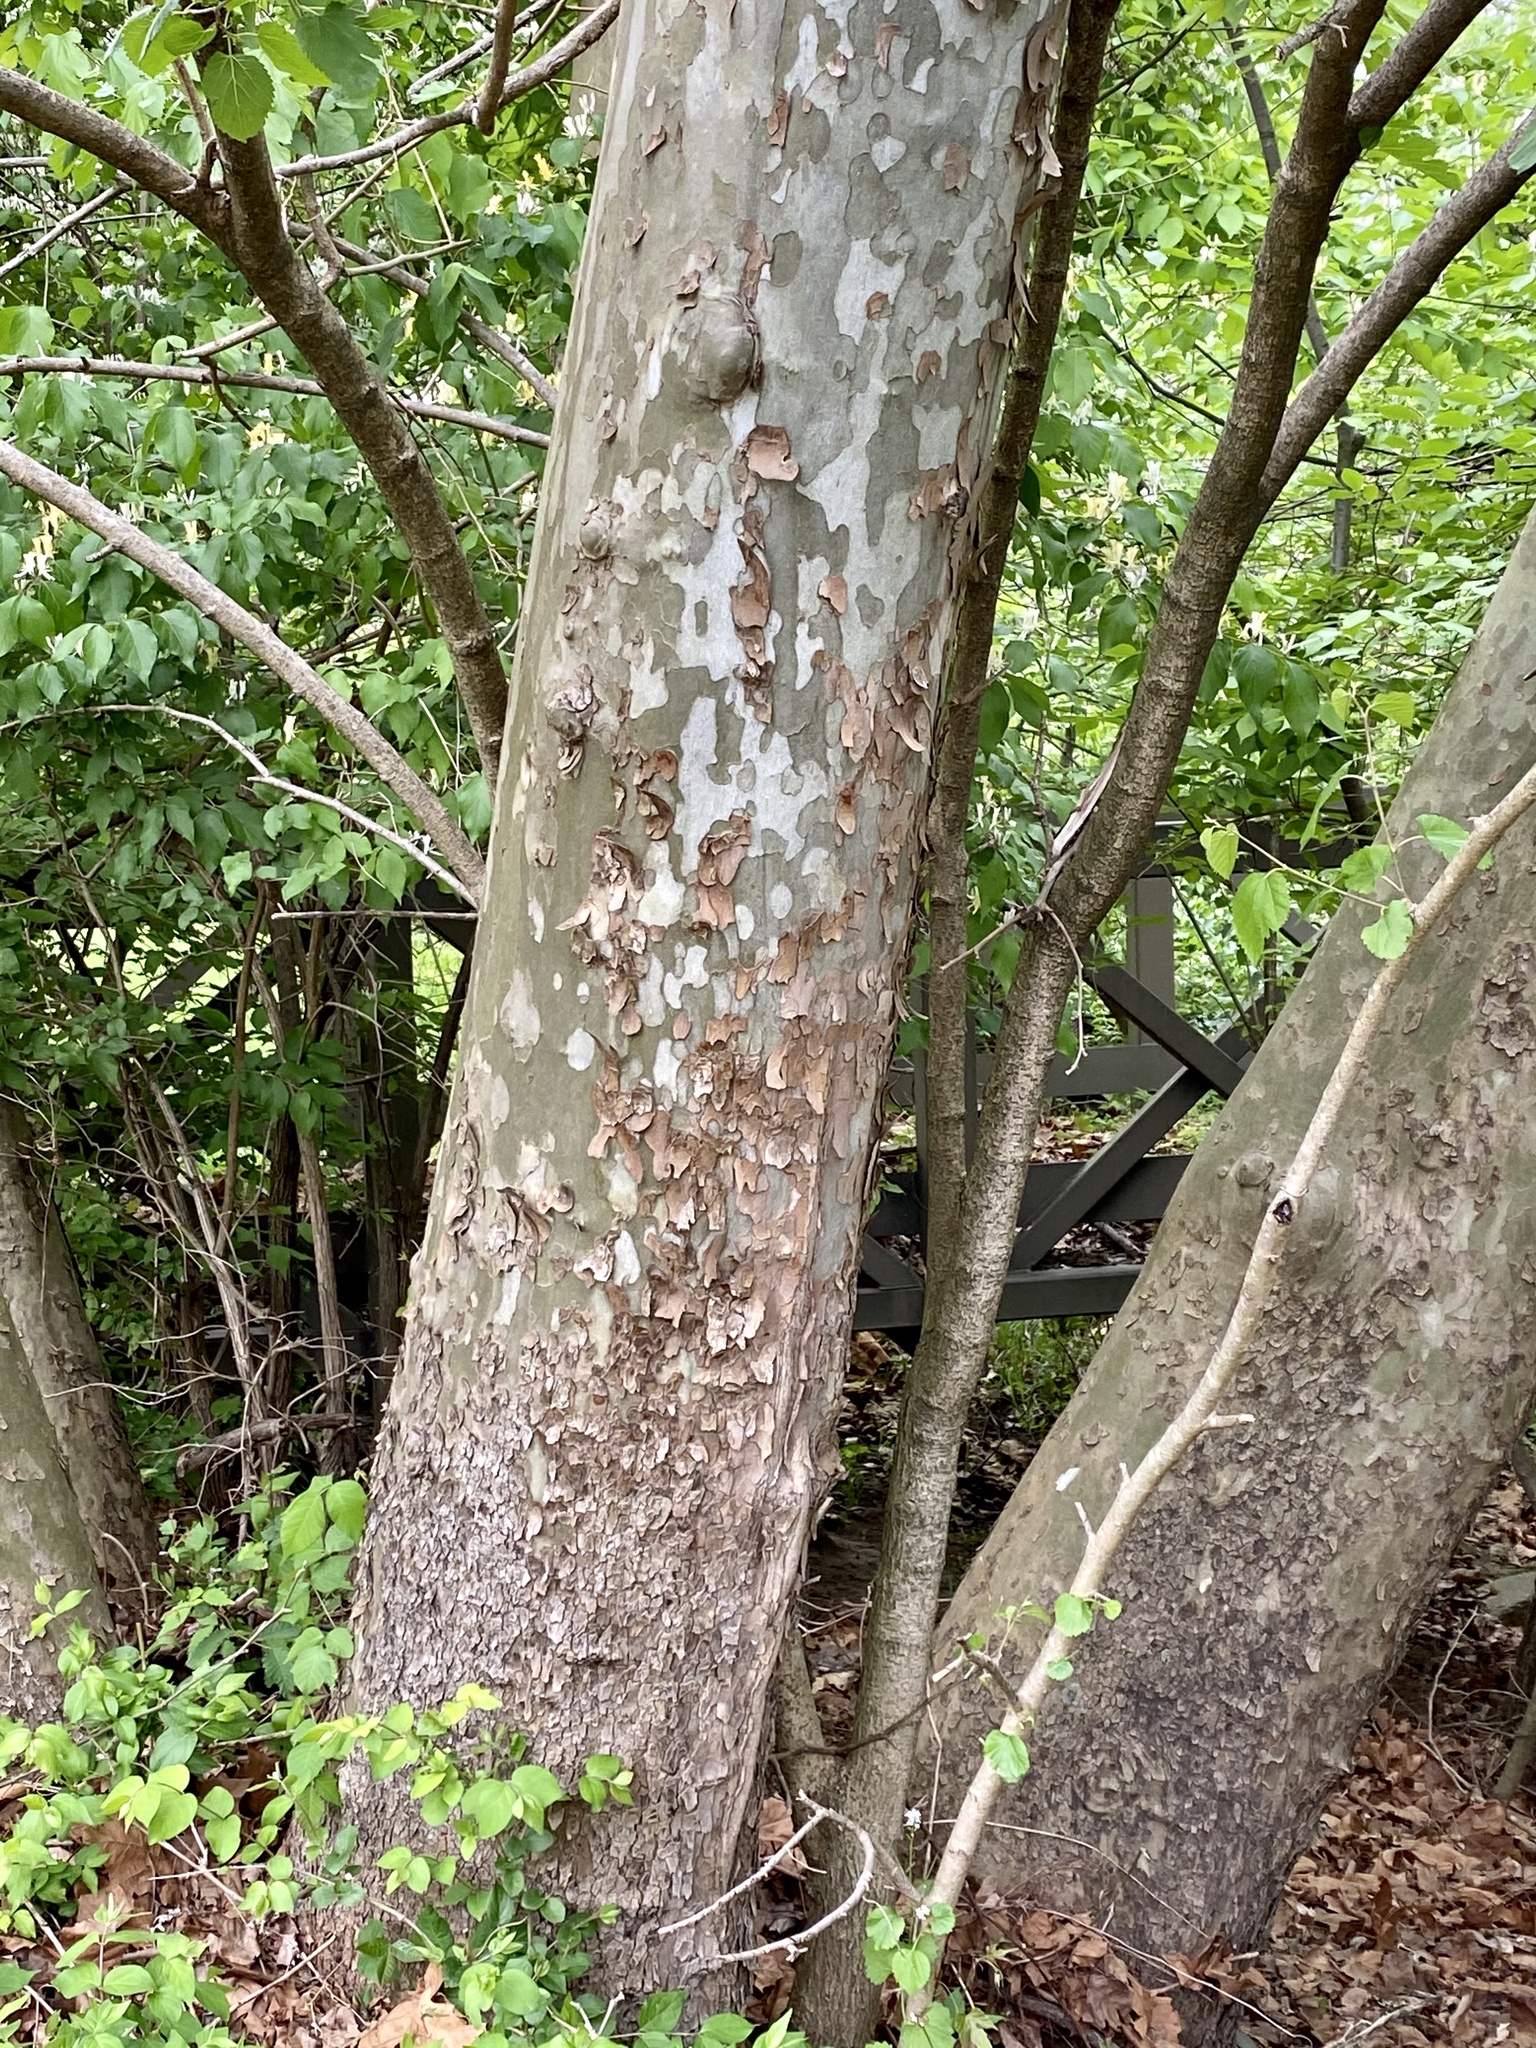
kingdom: Plantae
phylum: Tracheophyta
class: Magnoliopsida
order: Proteales
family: Platanaceae
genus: Platanus
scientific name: Platanus occidentalis
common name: American sycamore
